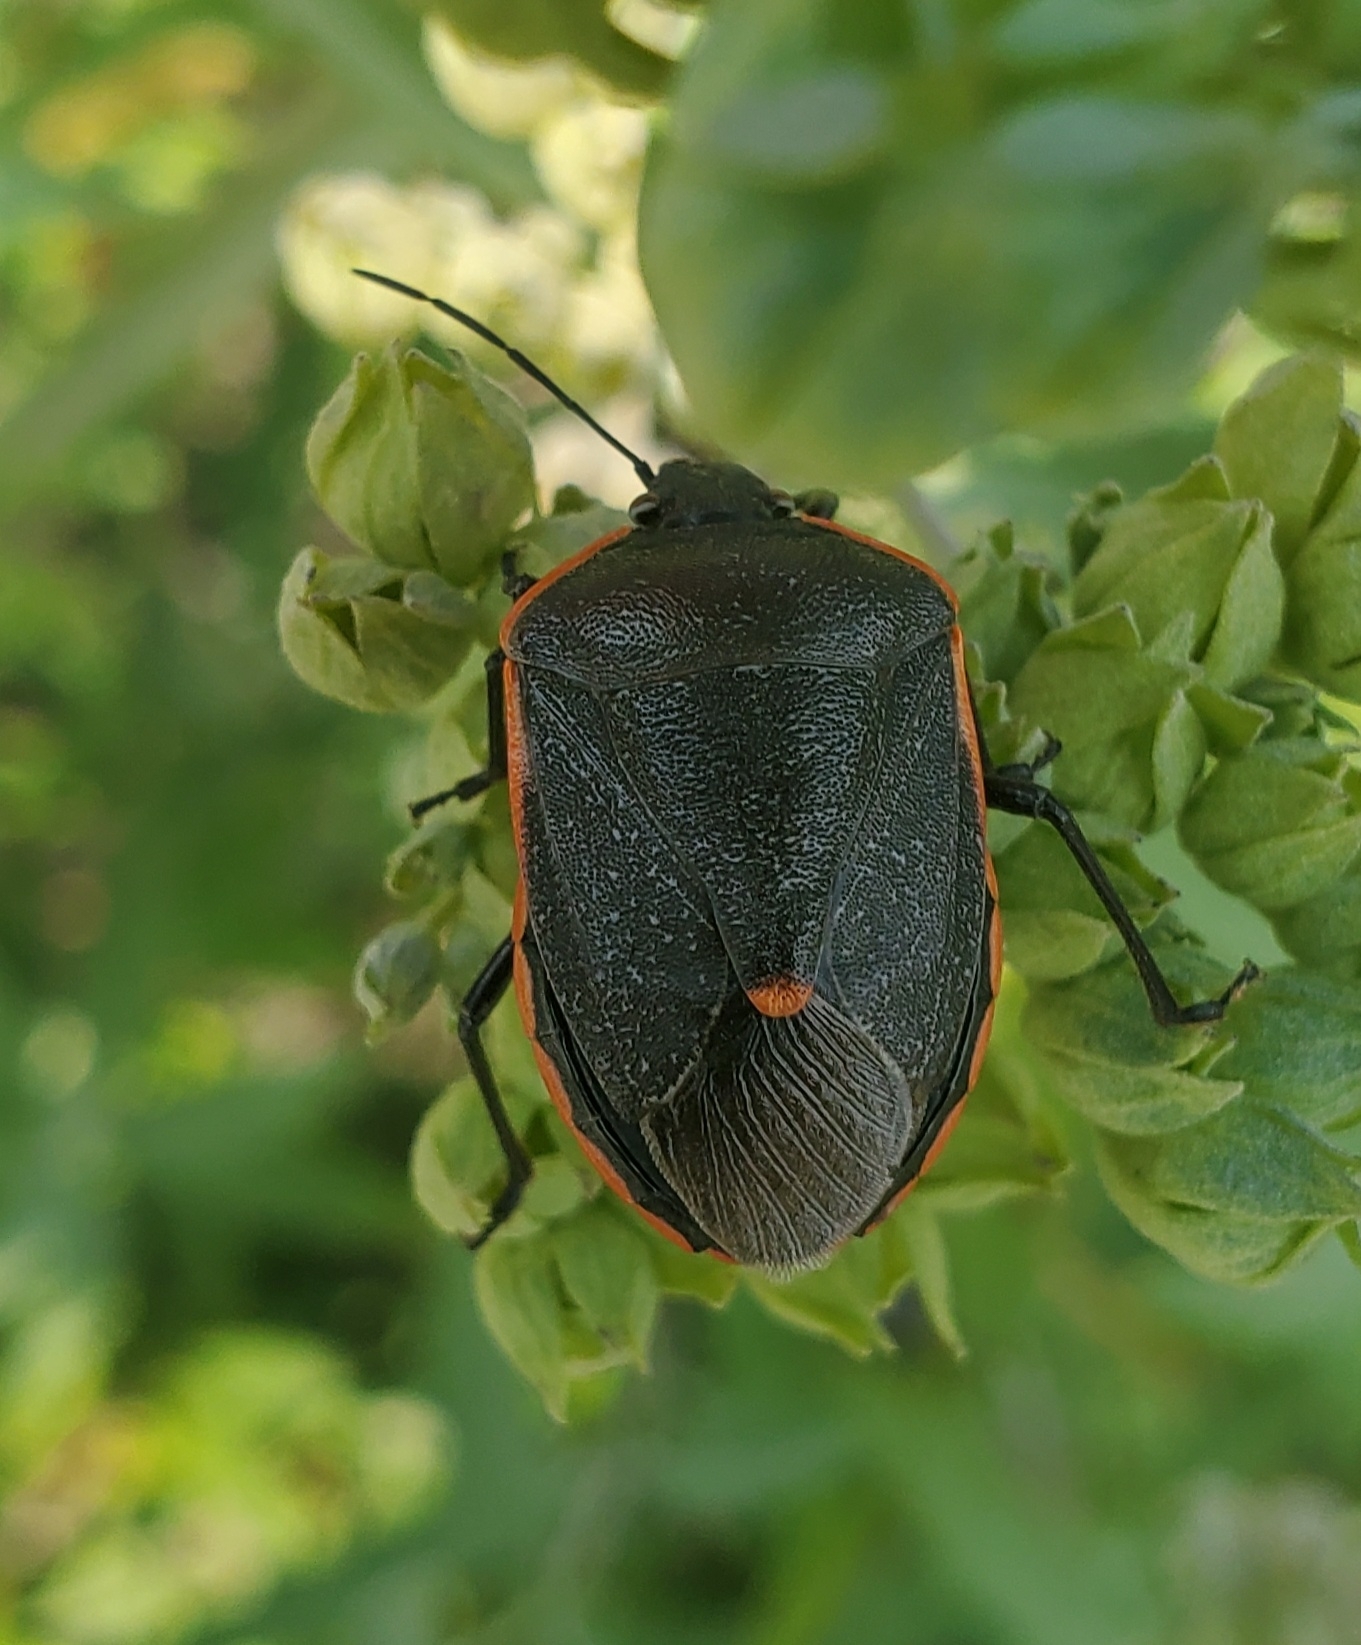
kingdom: Animalia
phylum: Arthropoda
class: Insecta
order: Hemiptera
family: Pentatomidae
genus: Chlorochroa
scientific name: Chlorochroa ligata
